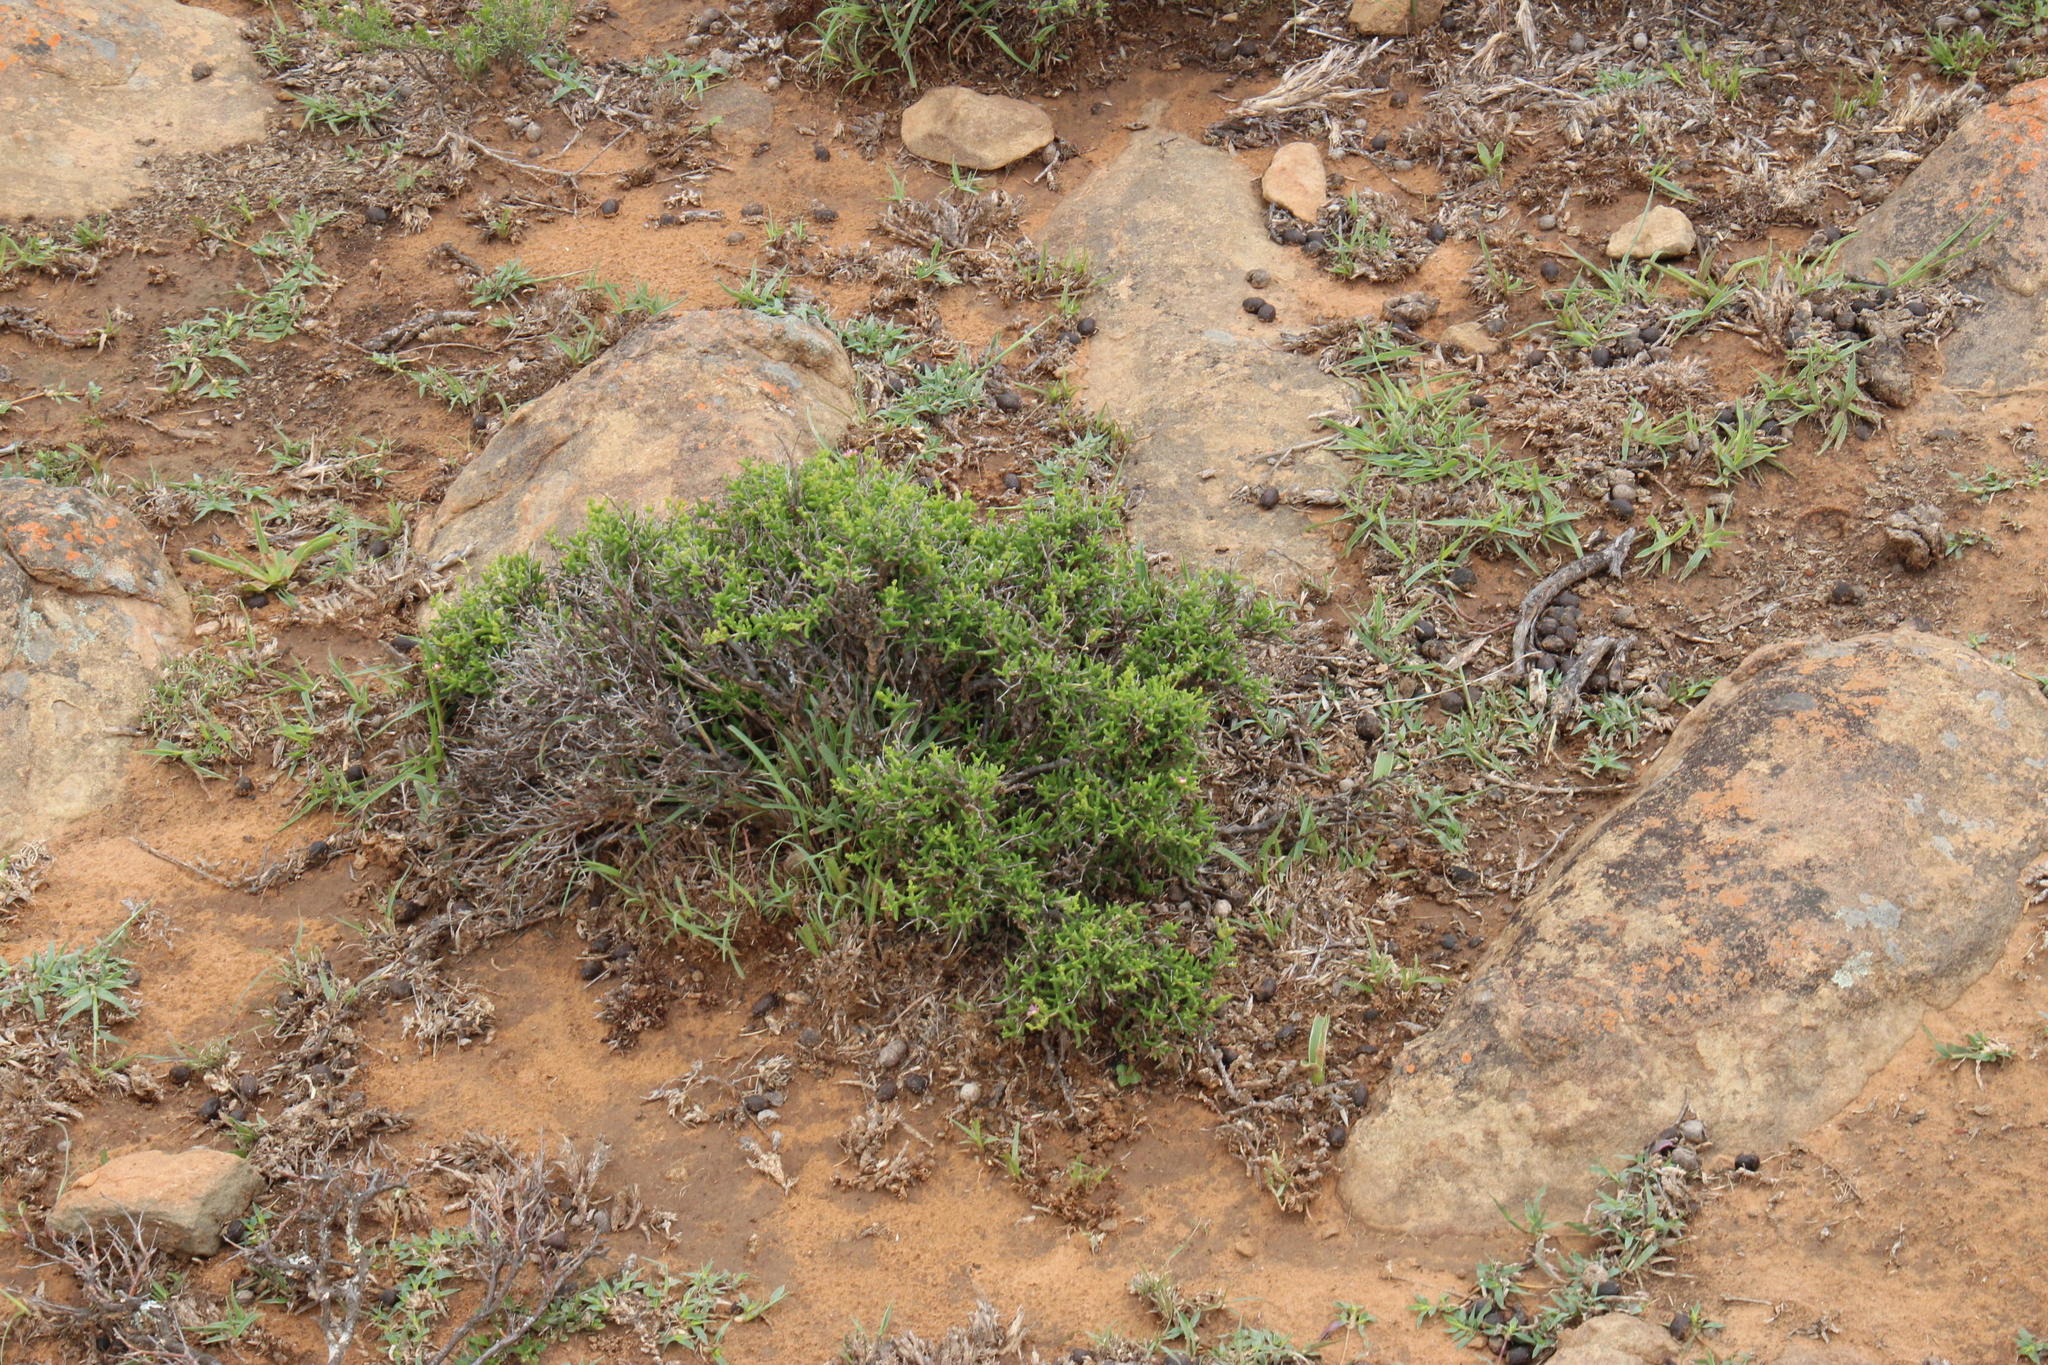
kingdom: Plantae
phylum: Tracheophyta
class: Magnoliopsida
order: Caryophyllales
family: Aizoaceae
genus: Mestoklema
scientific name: Mestoklema illepidum
